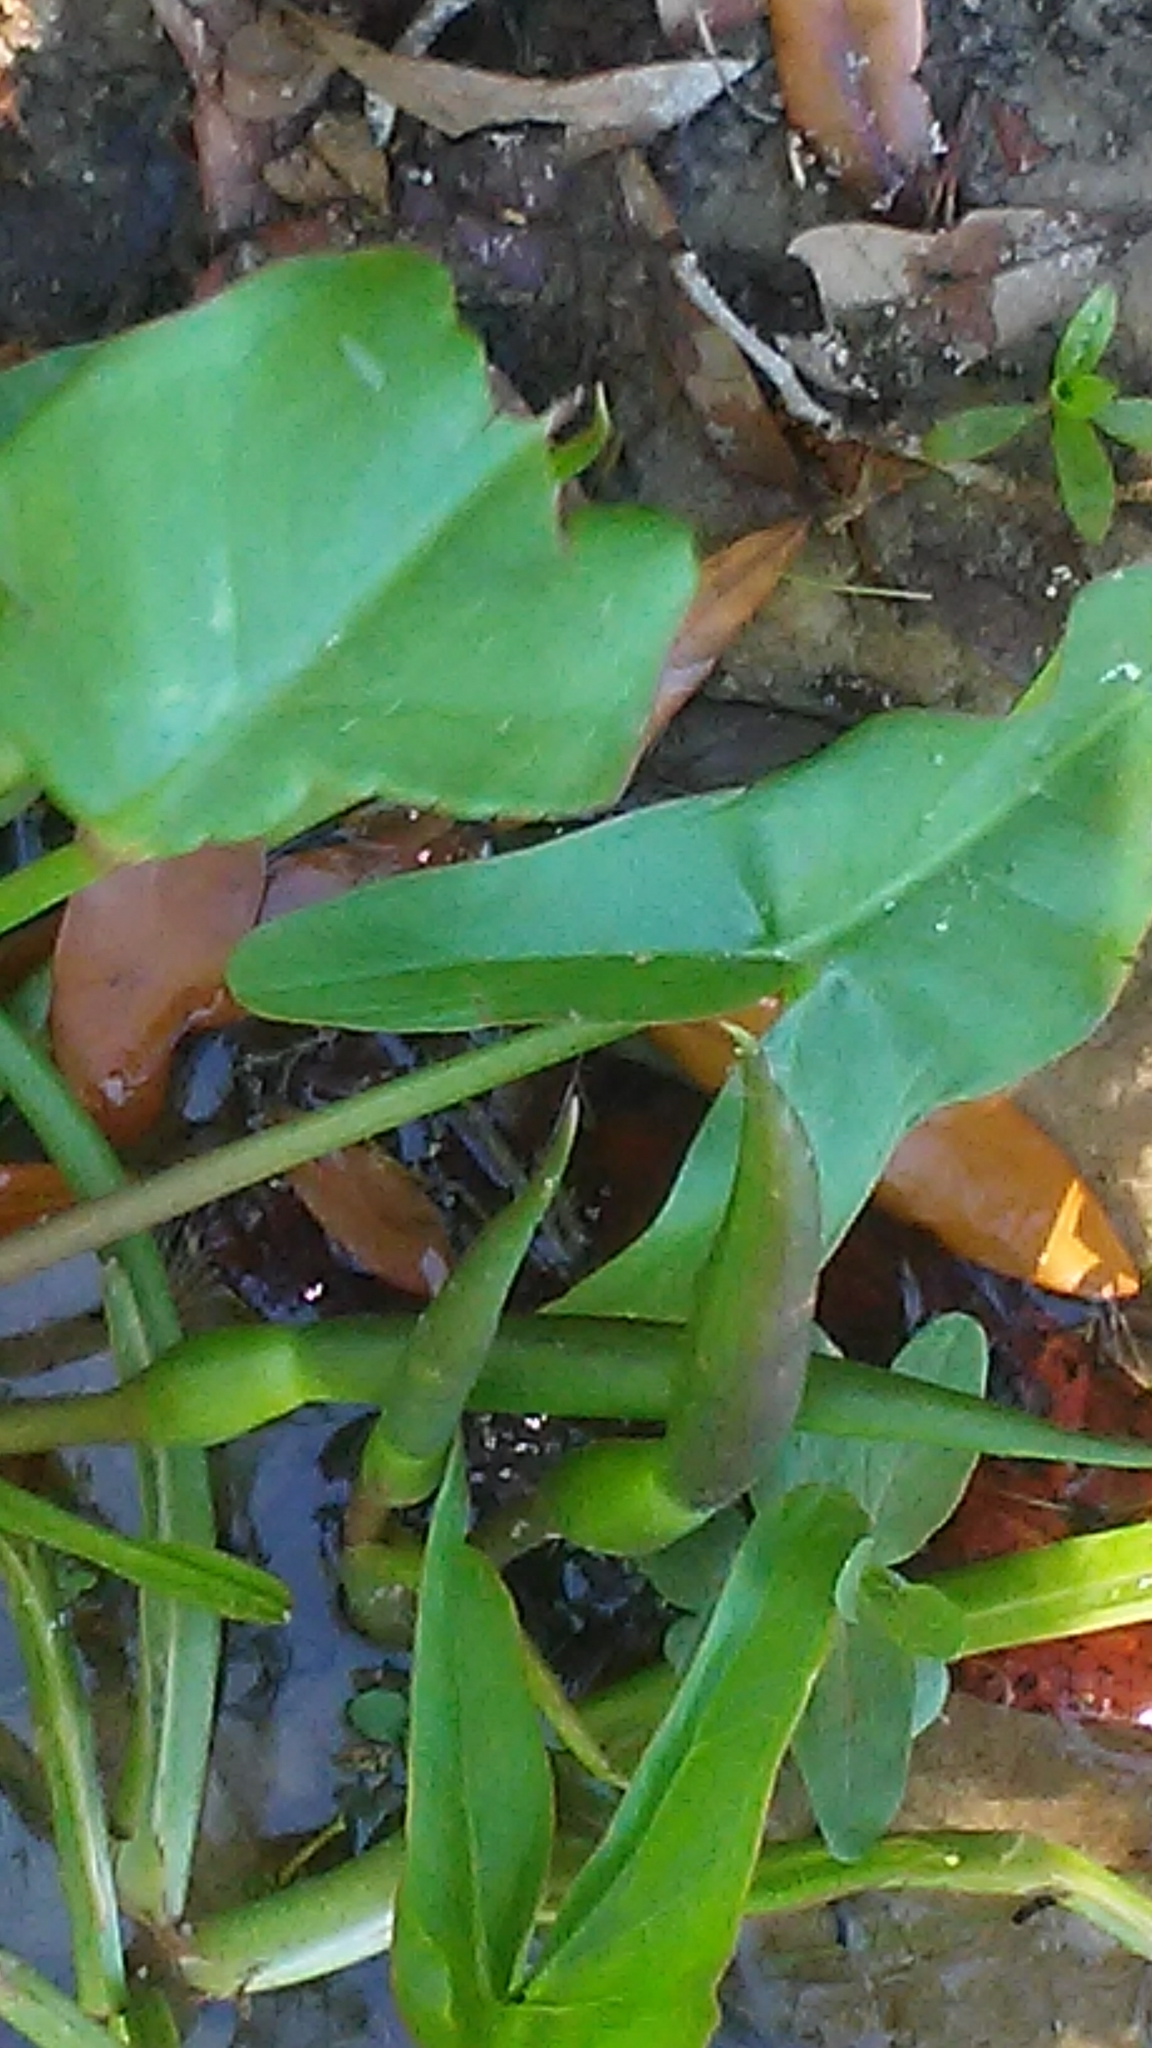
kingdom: Plantae
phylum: Tracheophyta
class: Liliopsida
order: Alismatales
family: Araceae
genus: Peltandra
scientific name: Peltandra virginica
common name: Arrow arum
